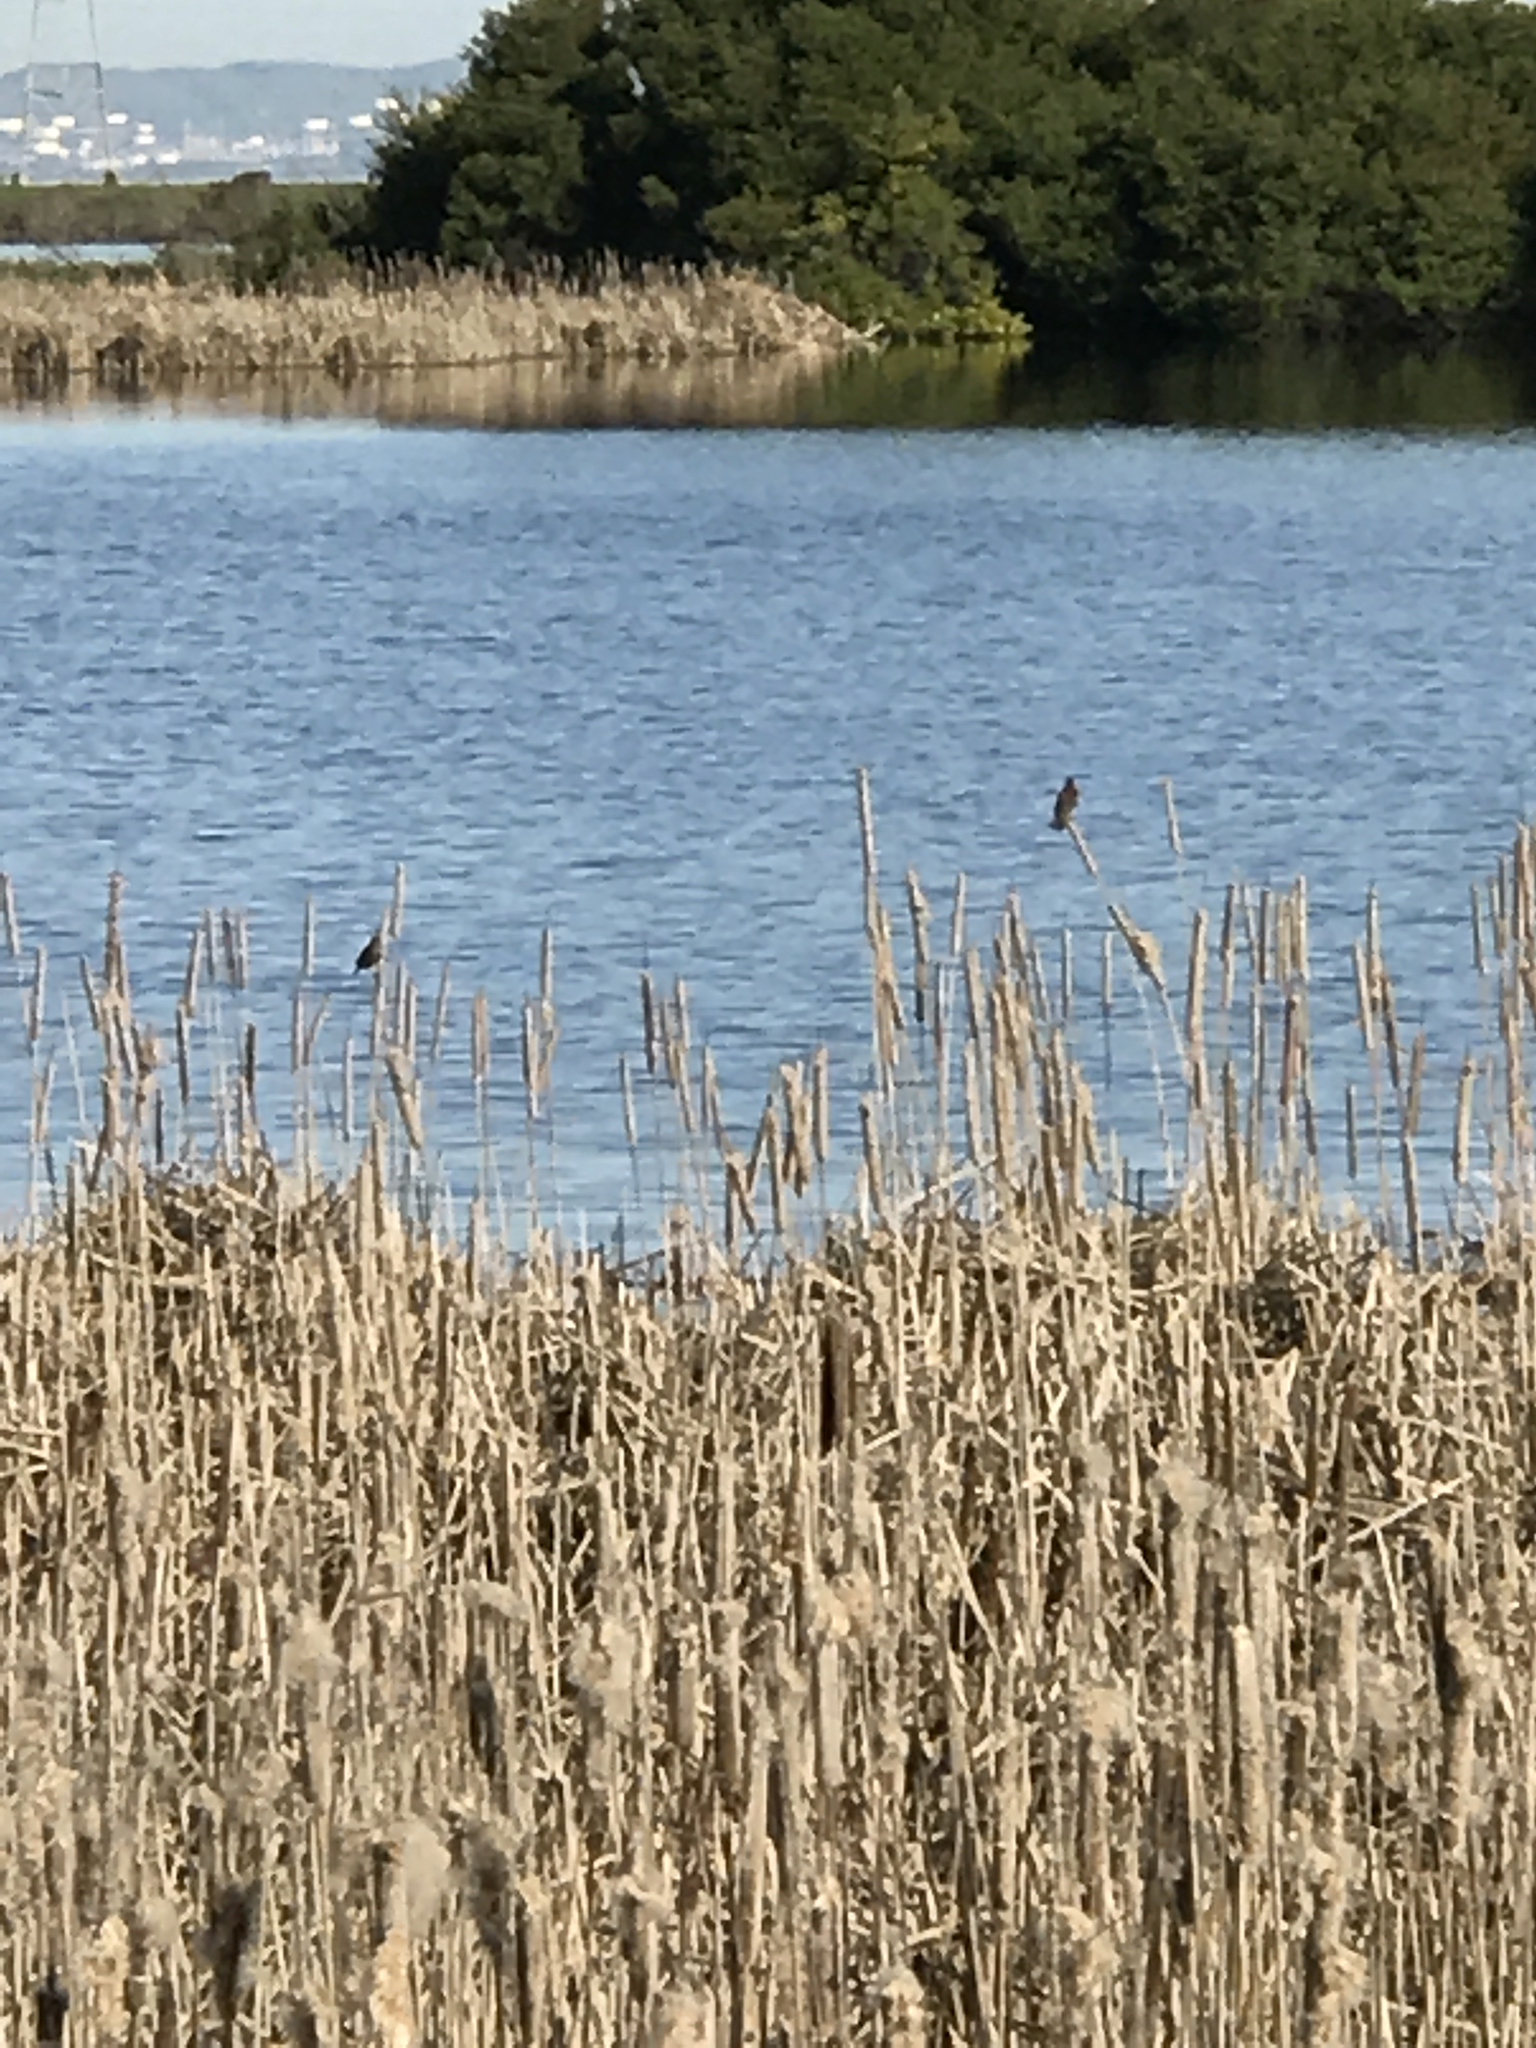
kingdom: Animalia
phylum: Chordata
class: Aves
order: Passeriformes
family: Icteridae
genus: Agelaius
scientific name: Agelaius phoeniceus
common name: Red-winged blackbird
